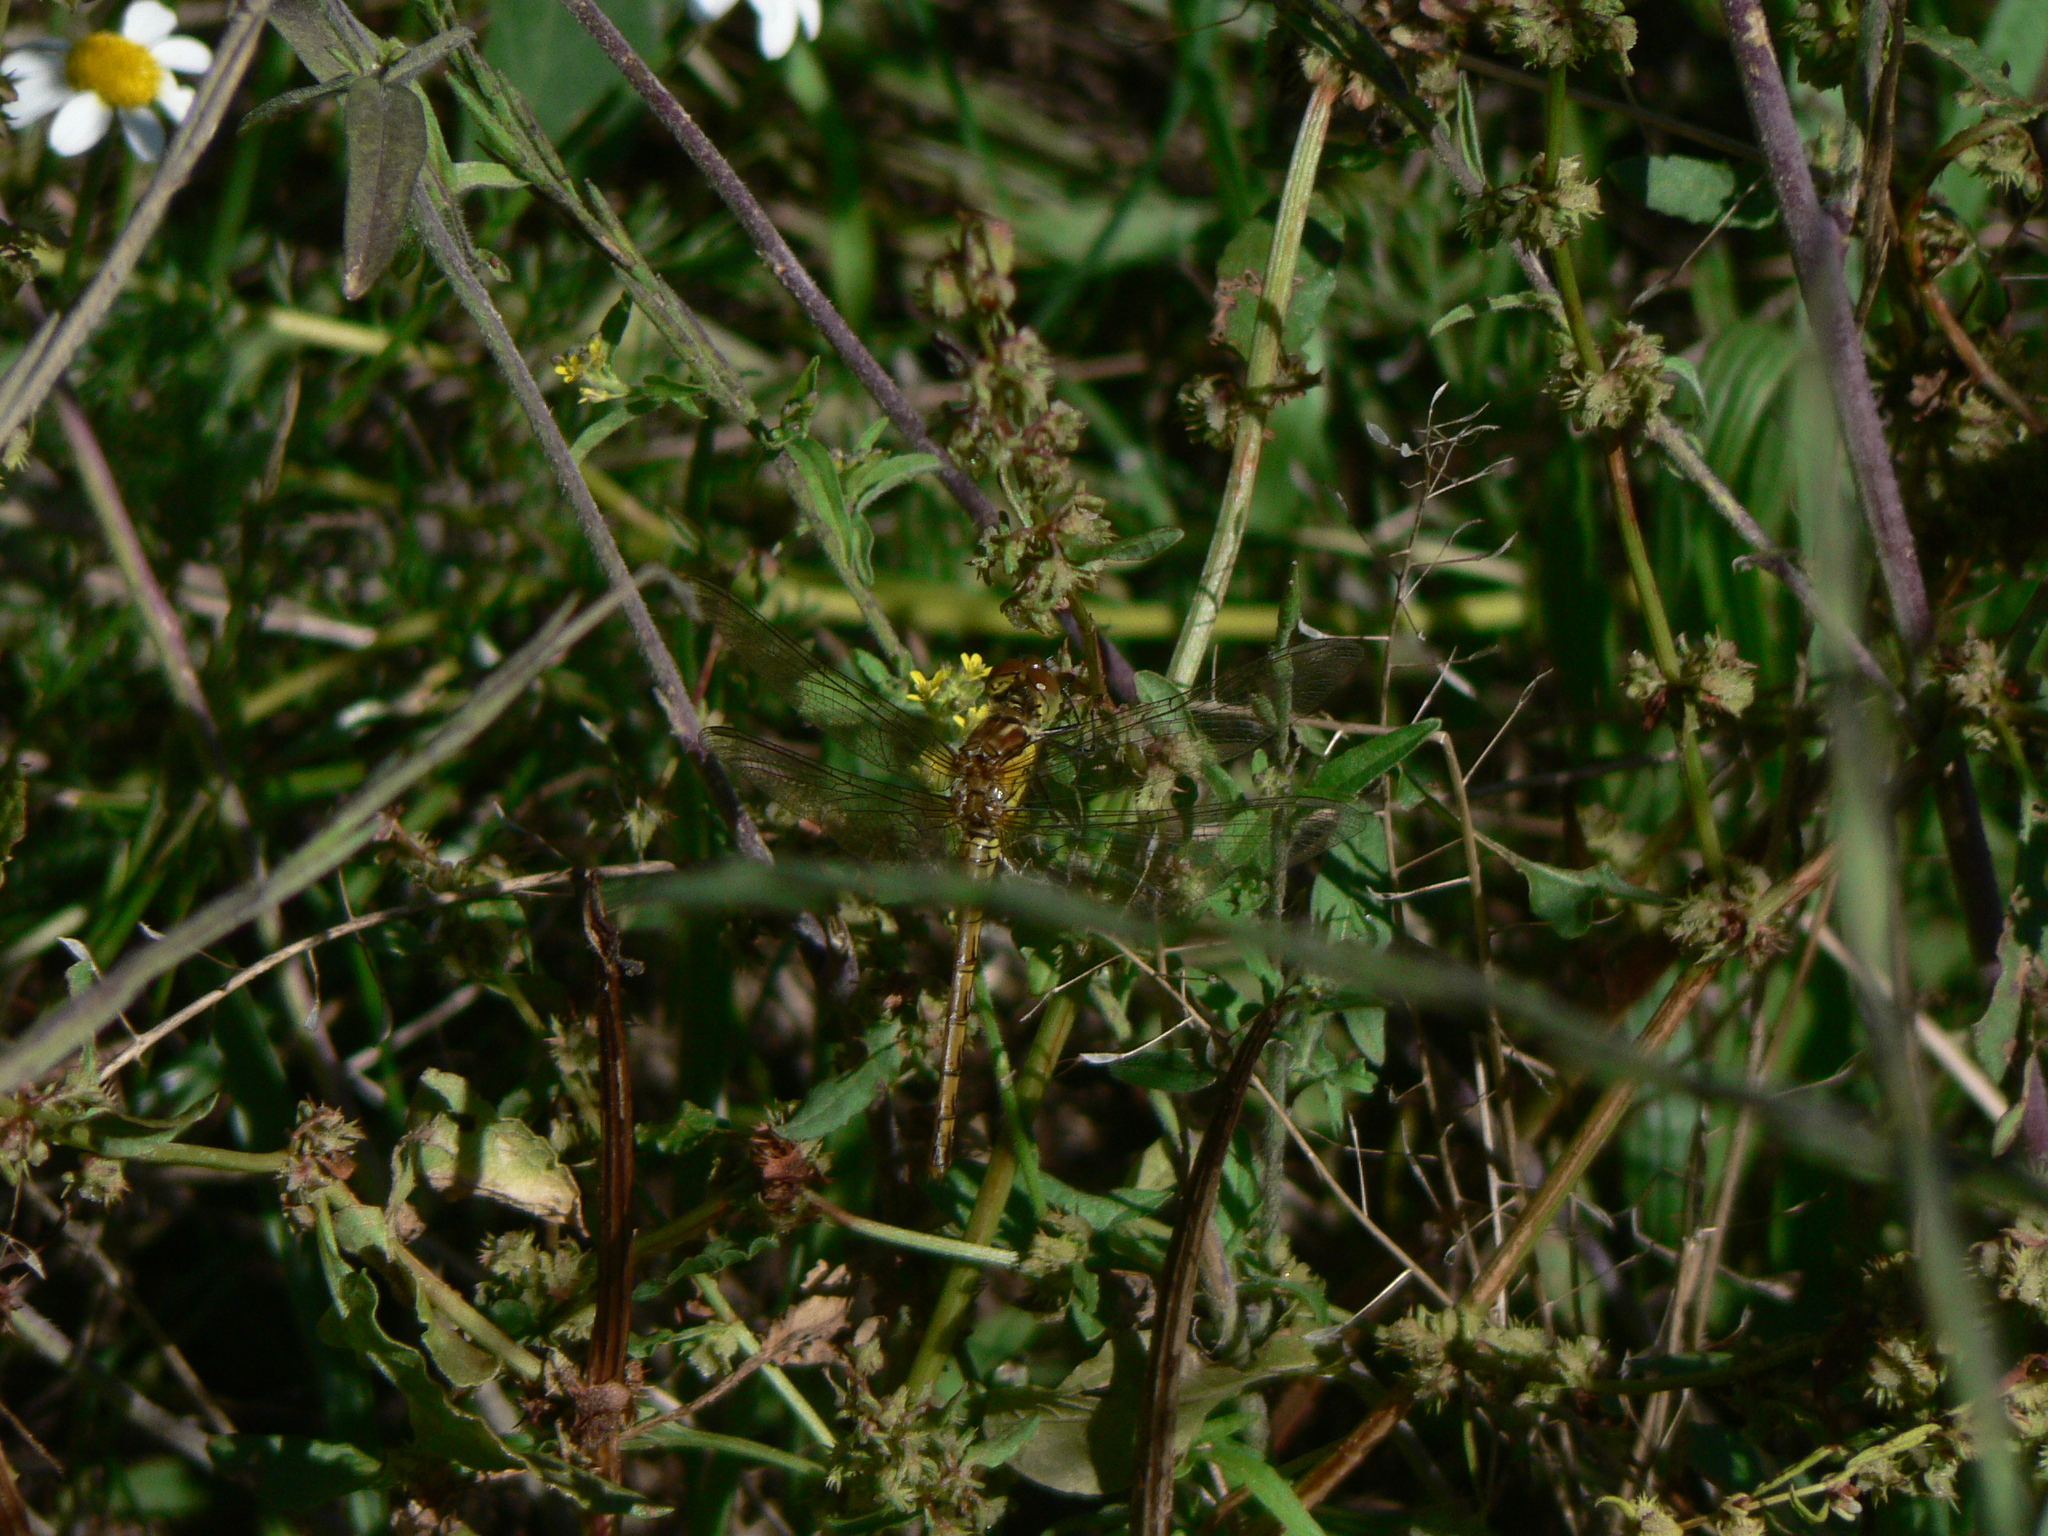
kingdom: Animalia
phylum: Arthropoda
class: Insecta
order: Odonata
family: Libellulidae
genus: Sympetrum
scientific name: Sympetrum striolatum
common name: Common darter
